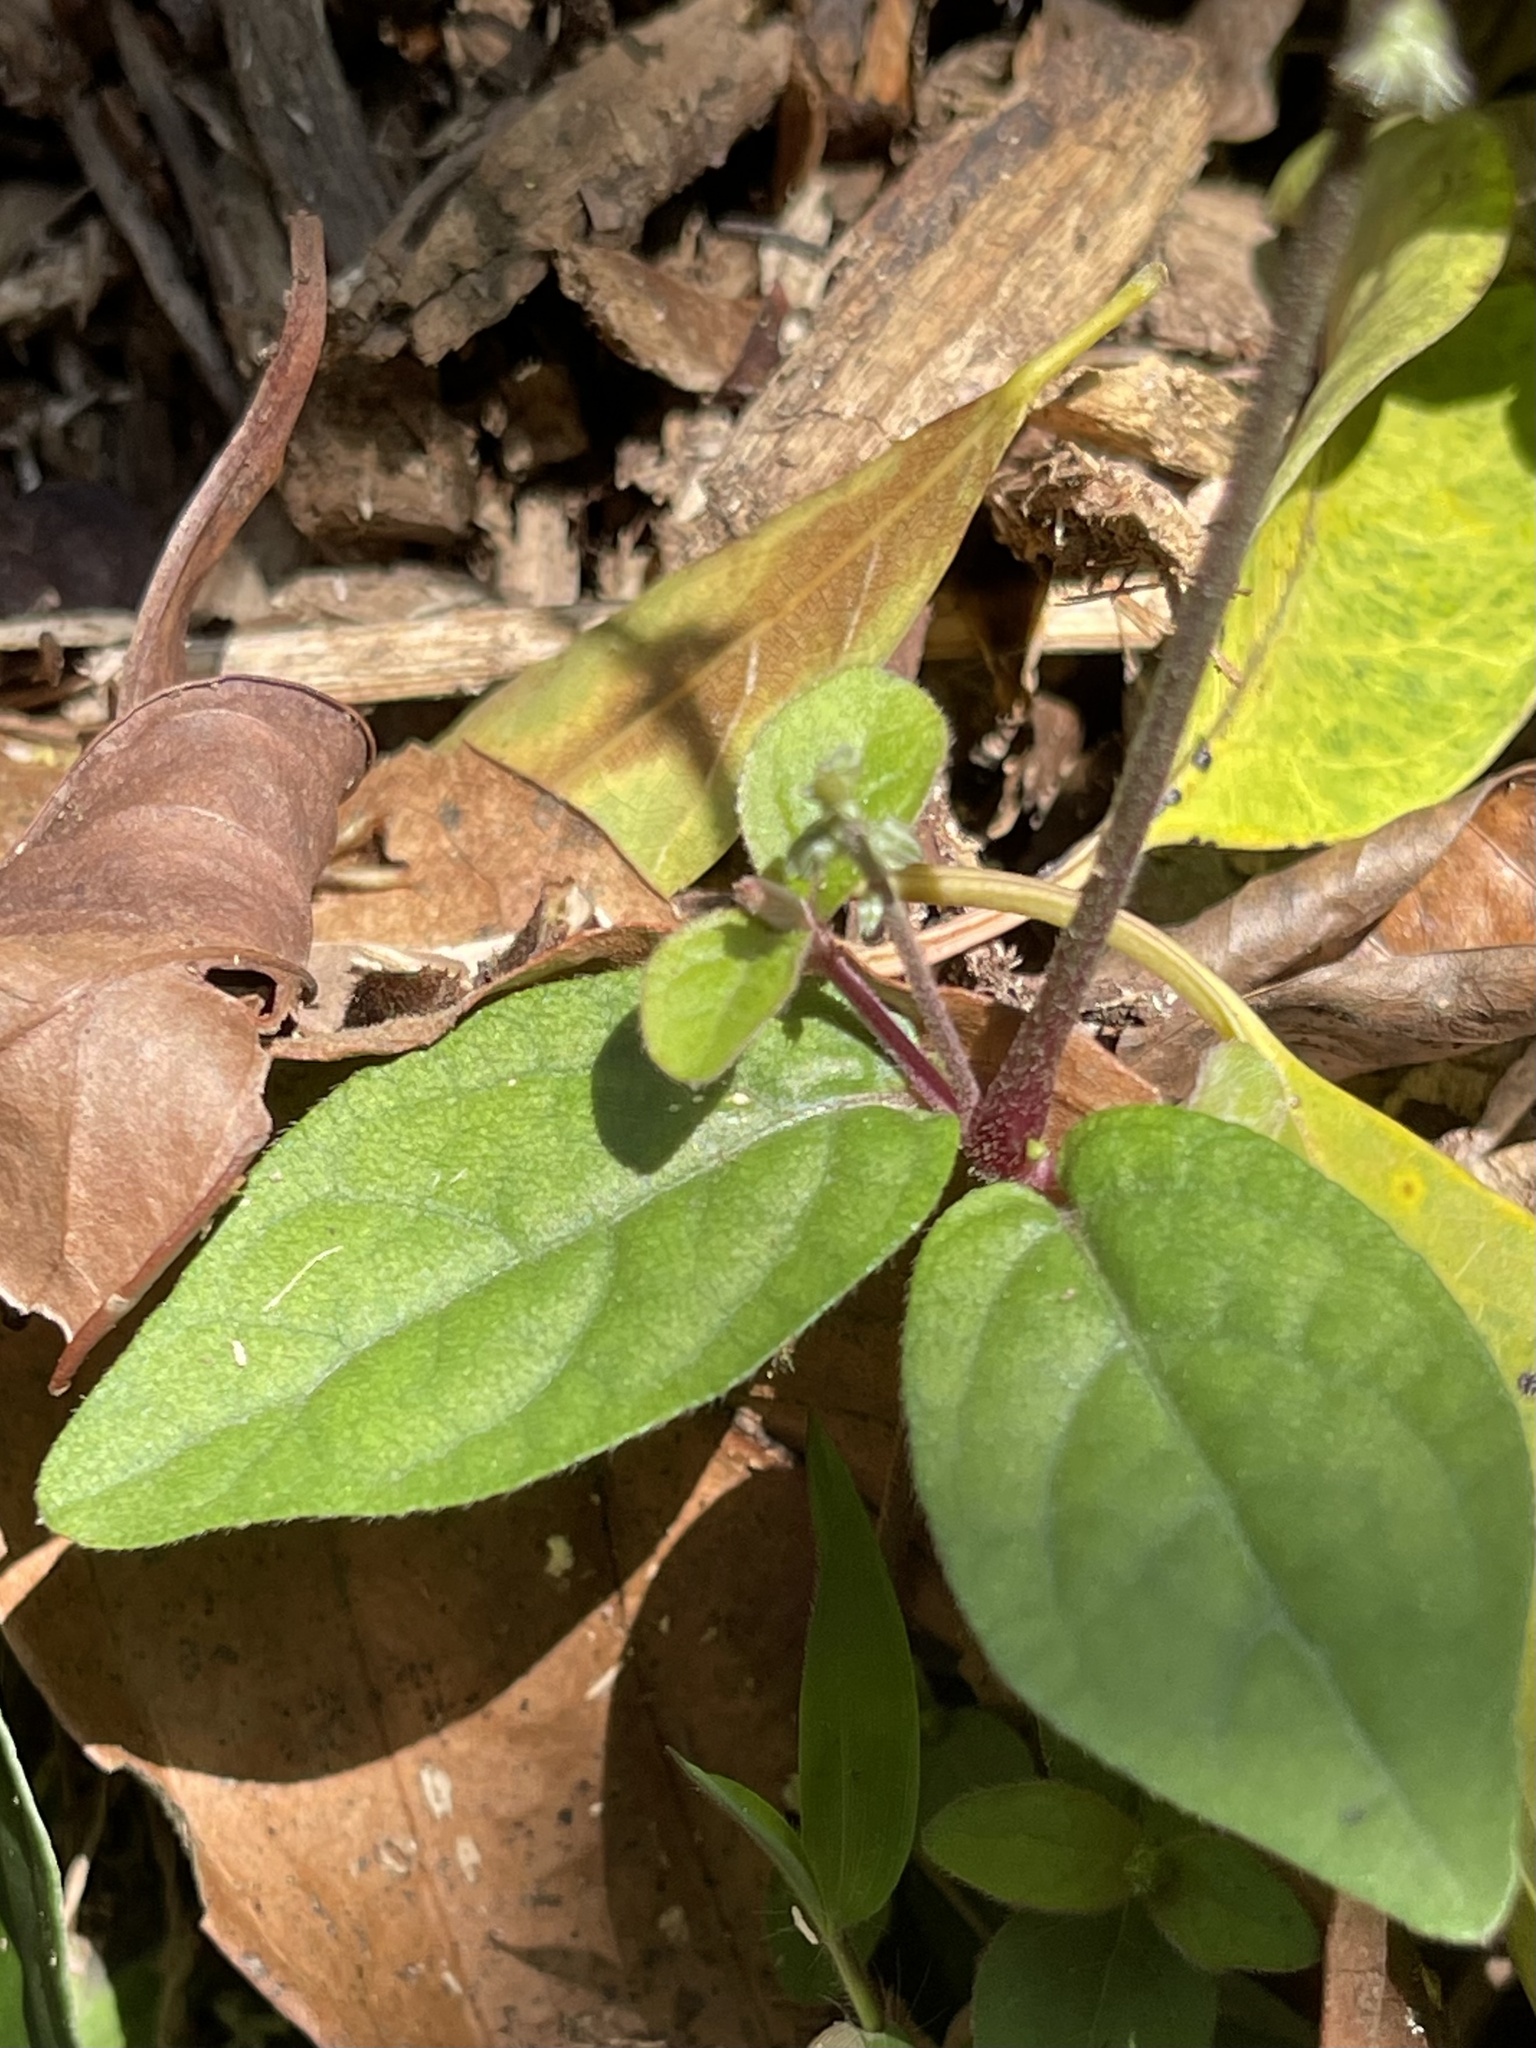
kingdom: Plantae
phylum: Tracheophyta
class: Magnoliopsida
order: Caryophyllales
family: Amaranthaceae
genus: Cyathula
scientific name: Cyathula prostrata
